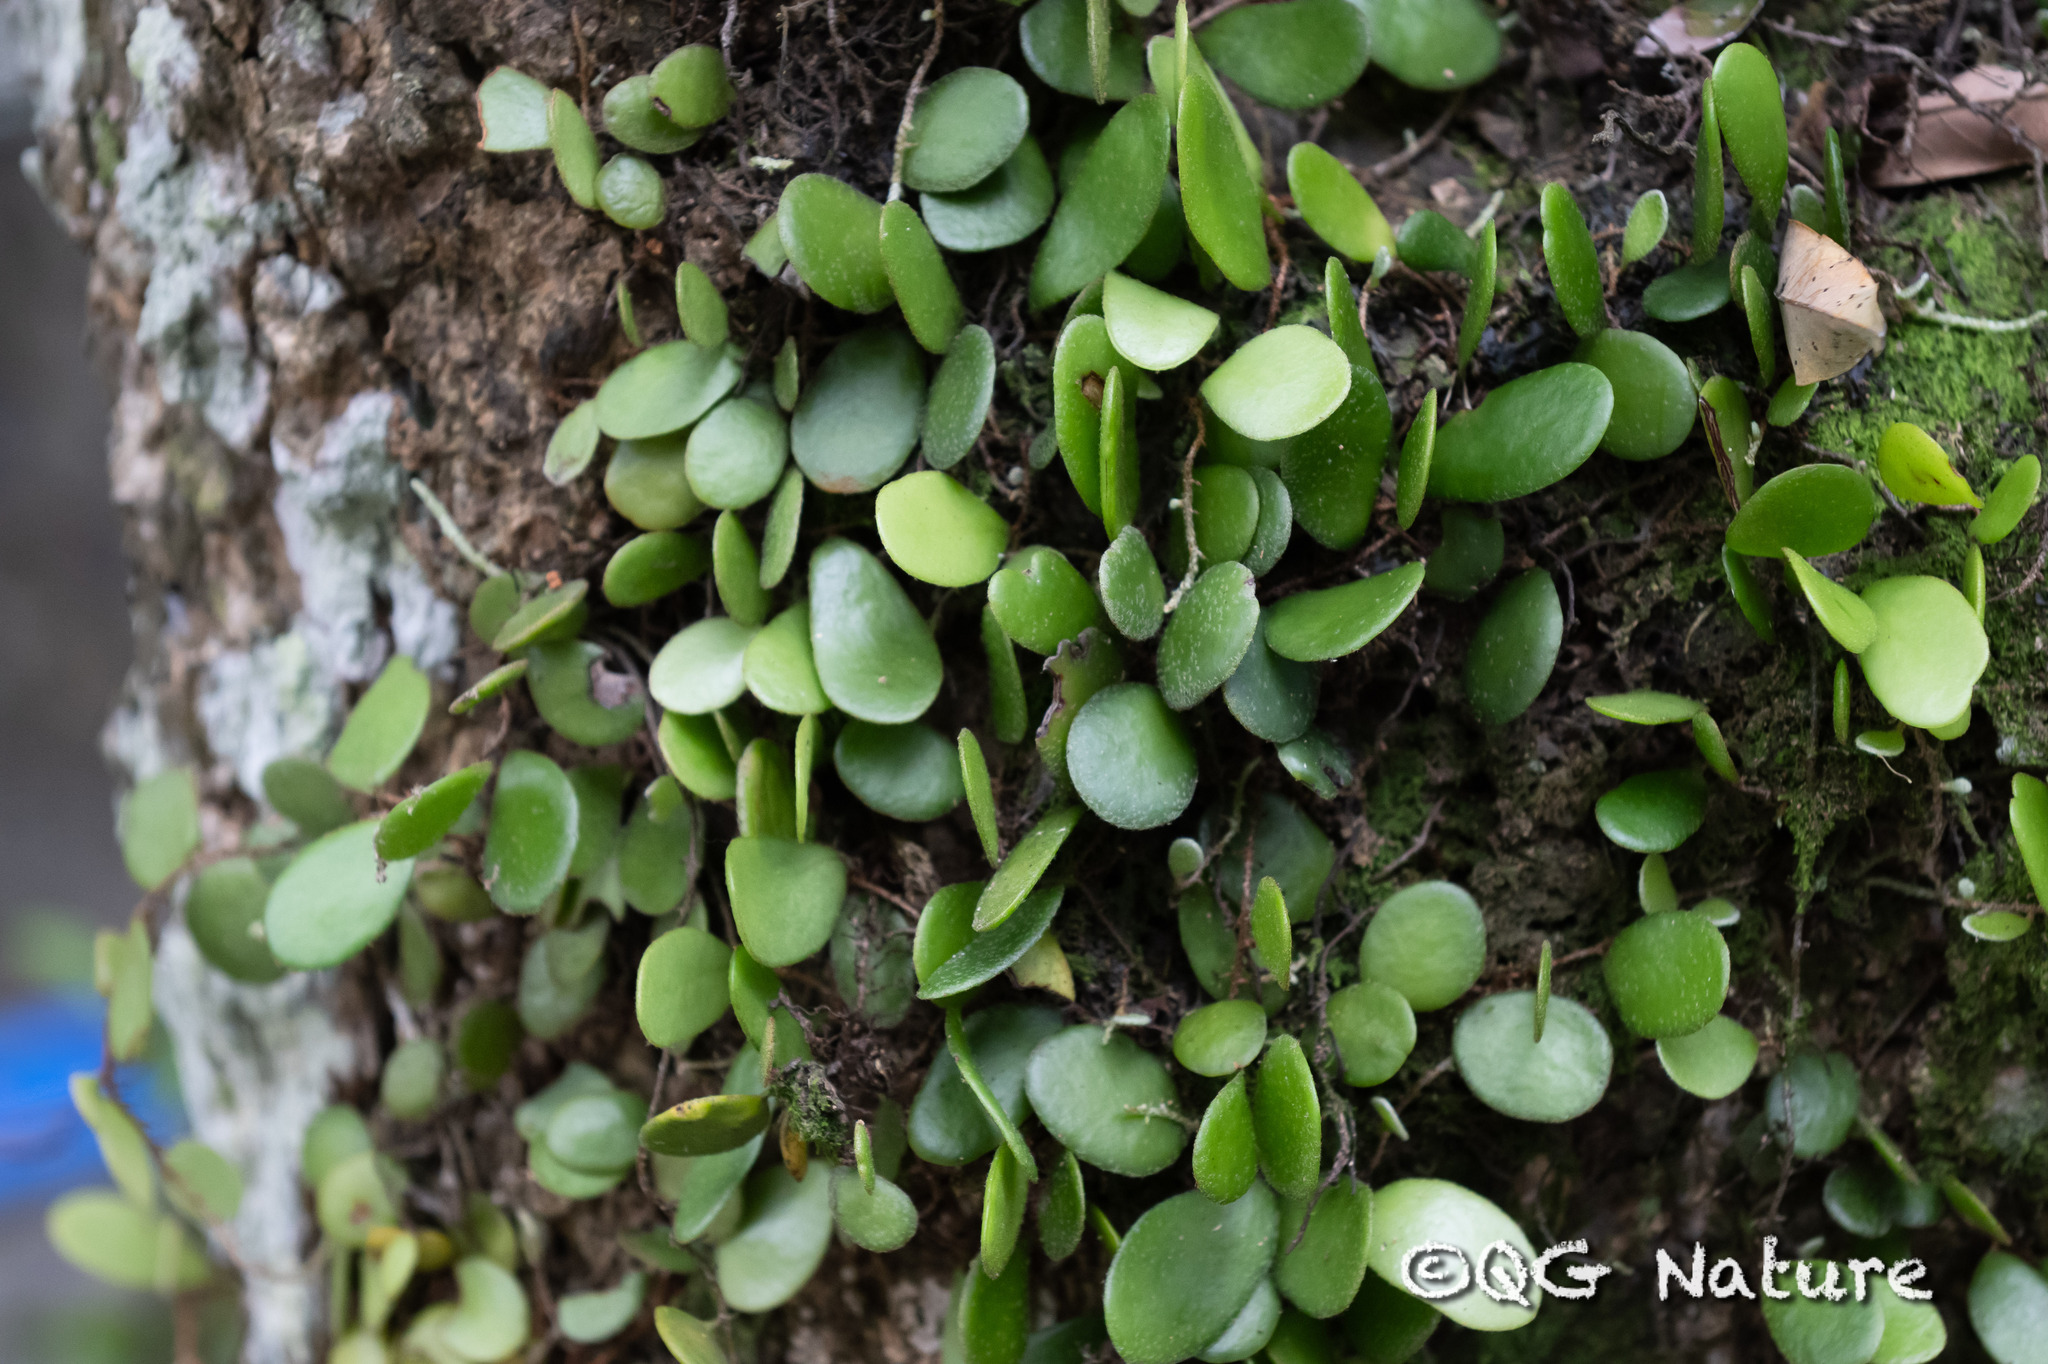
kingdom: Plantae
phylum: Tracheophyta
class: Polypodiopsida
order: Polypodiales
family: Polypodiaceae
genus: Lepisorus
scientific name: Lepisorus microphyllus
